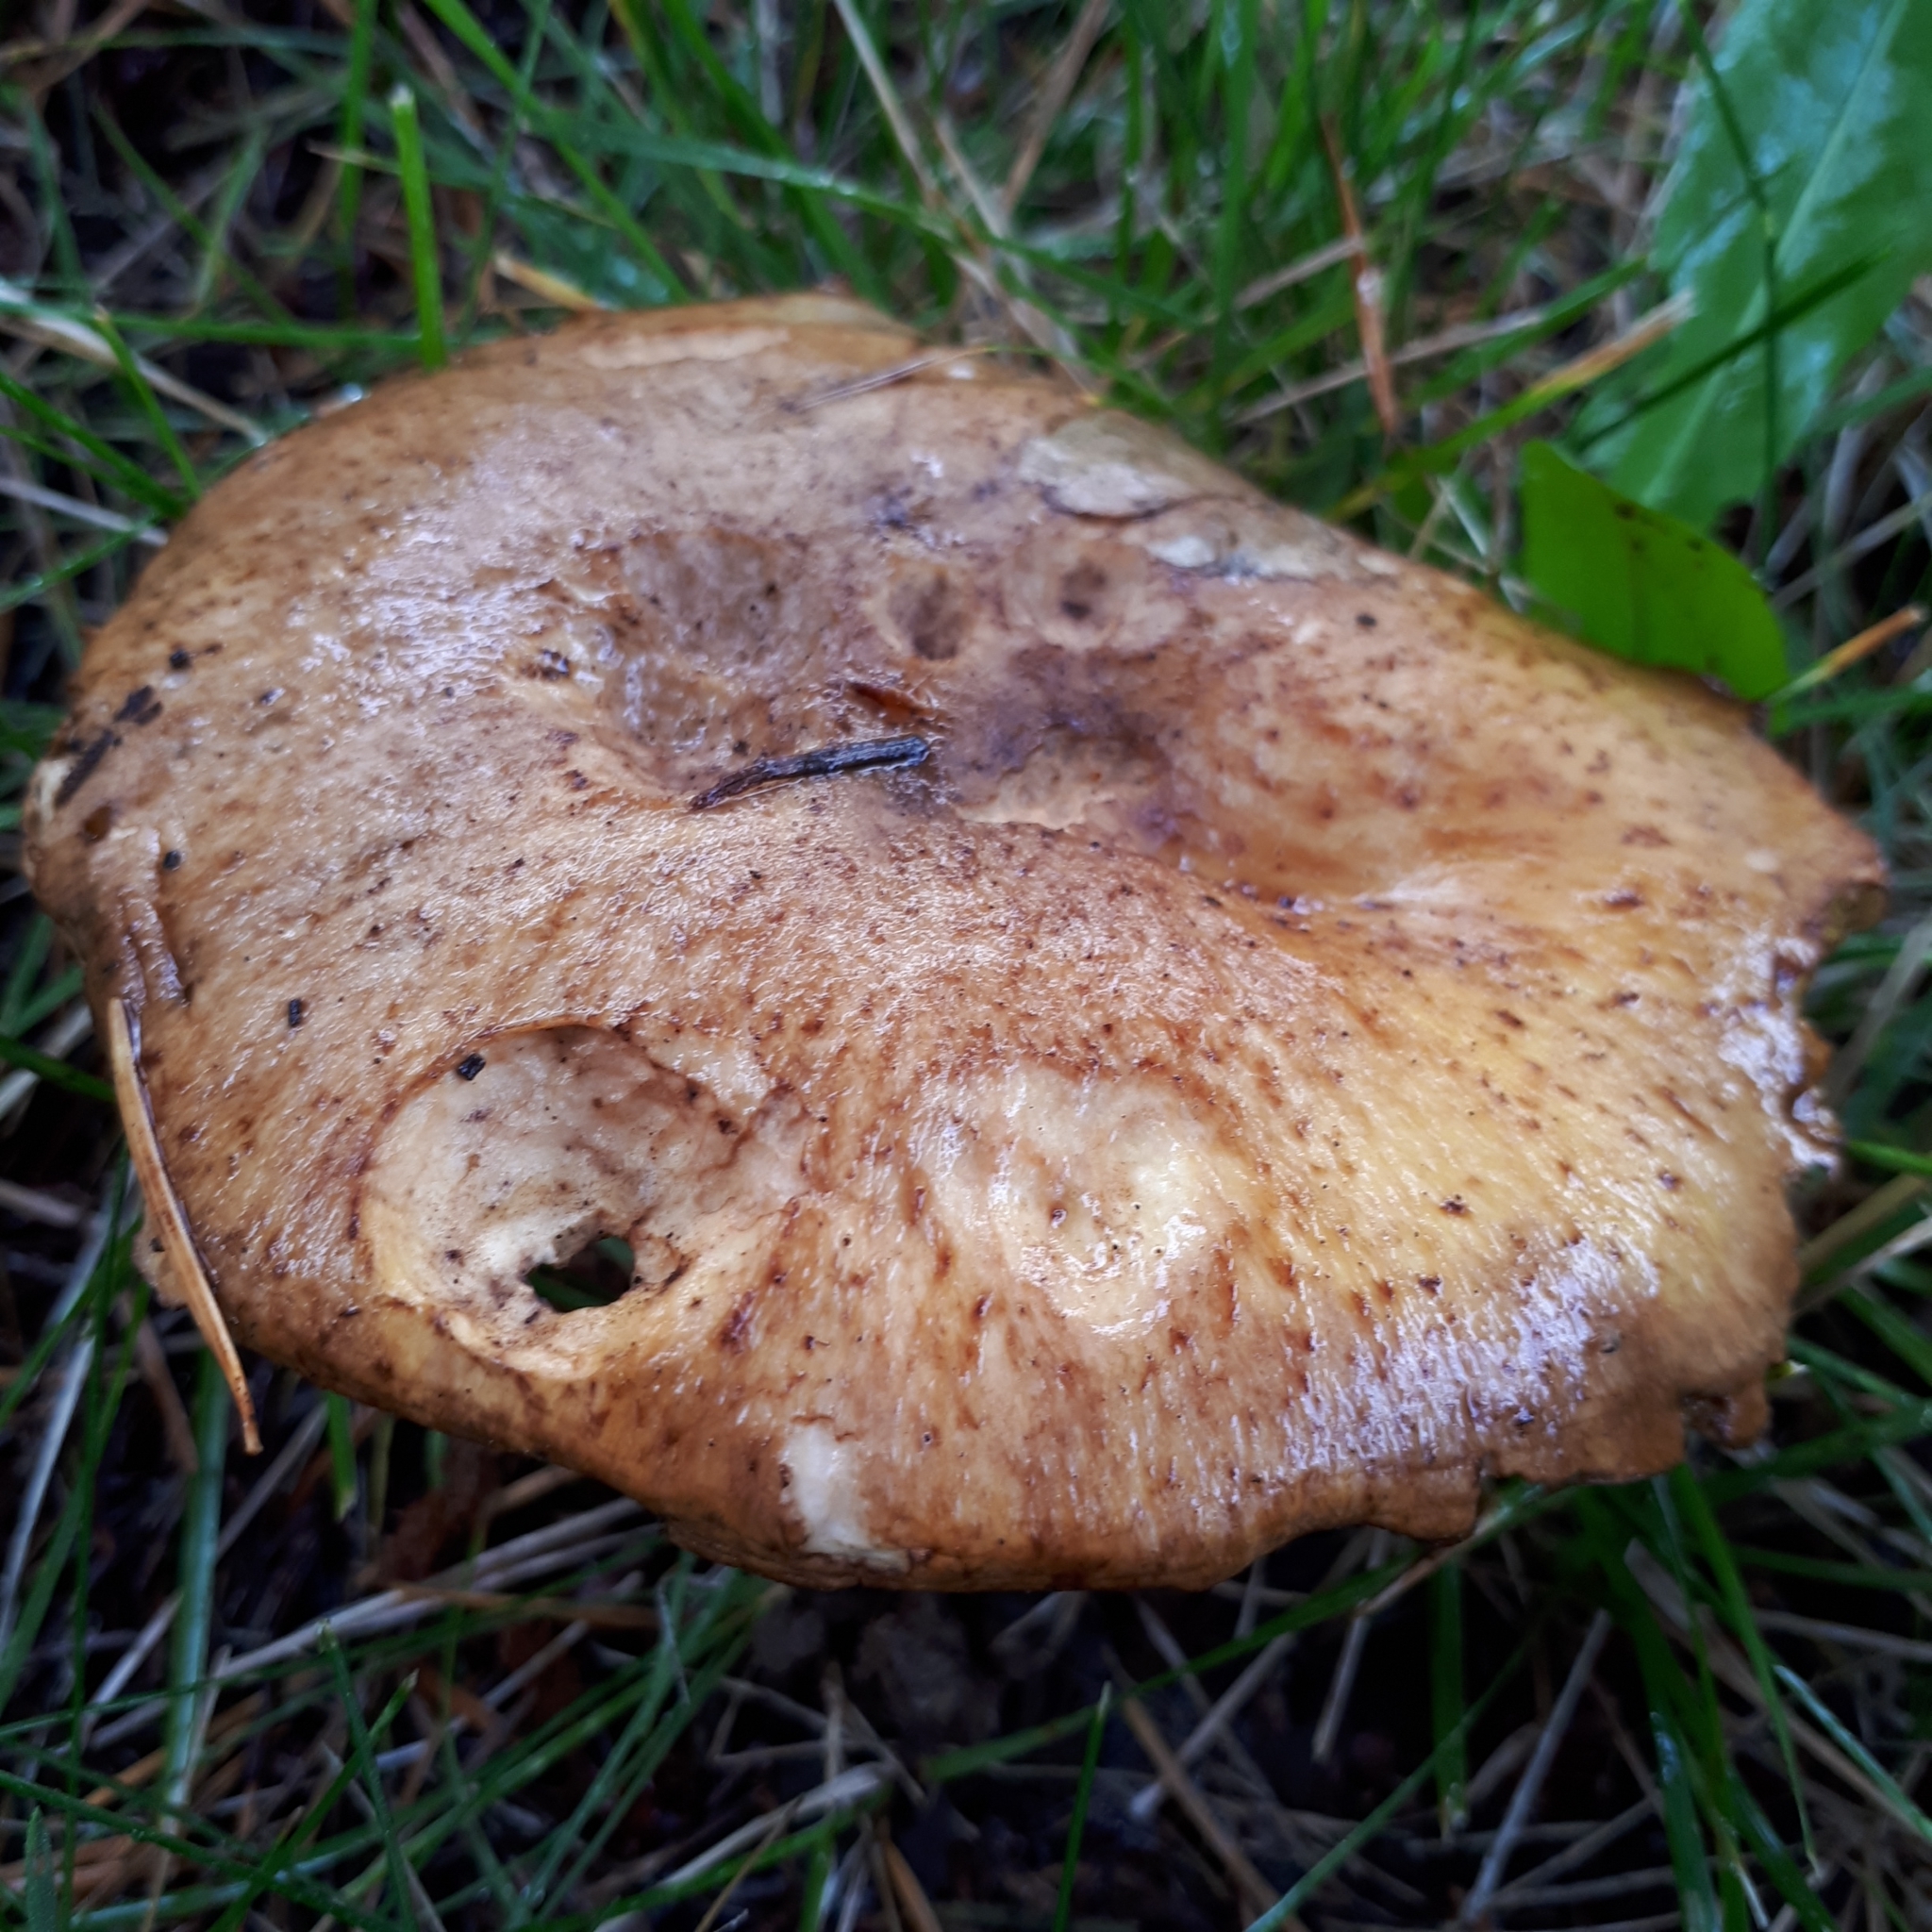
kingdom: Fungi
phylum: Basidiomycota
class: Agaricomycetes
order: Boletales
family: Suillaceae
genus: Suillus
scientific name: Suillus caerulescens
